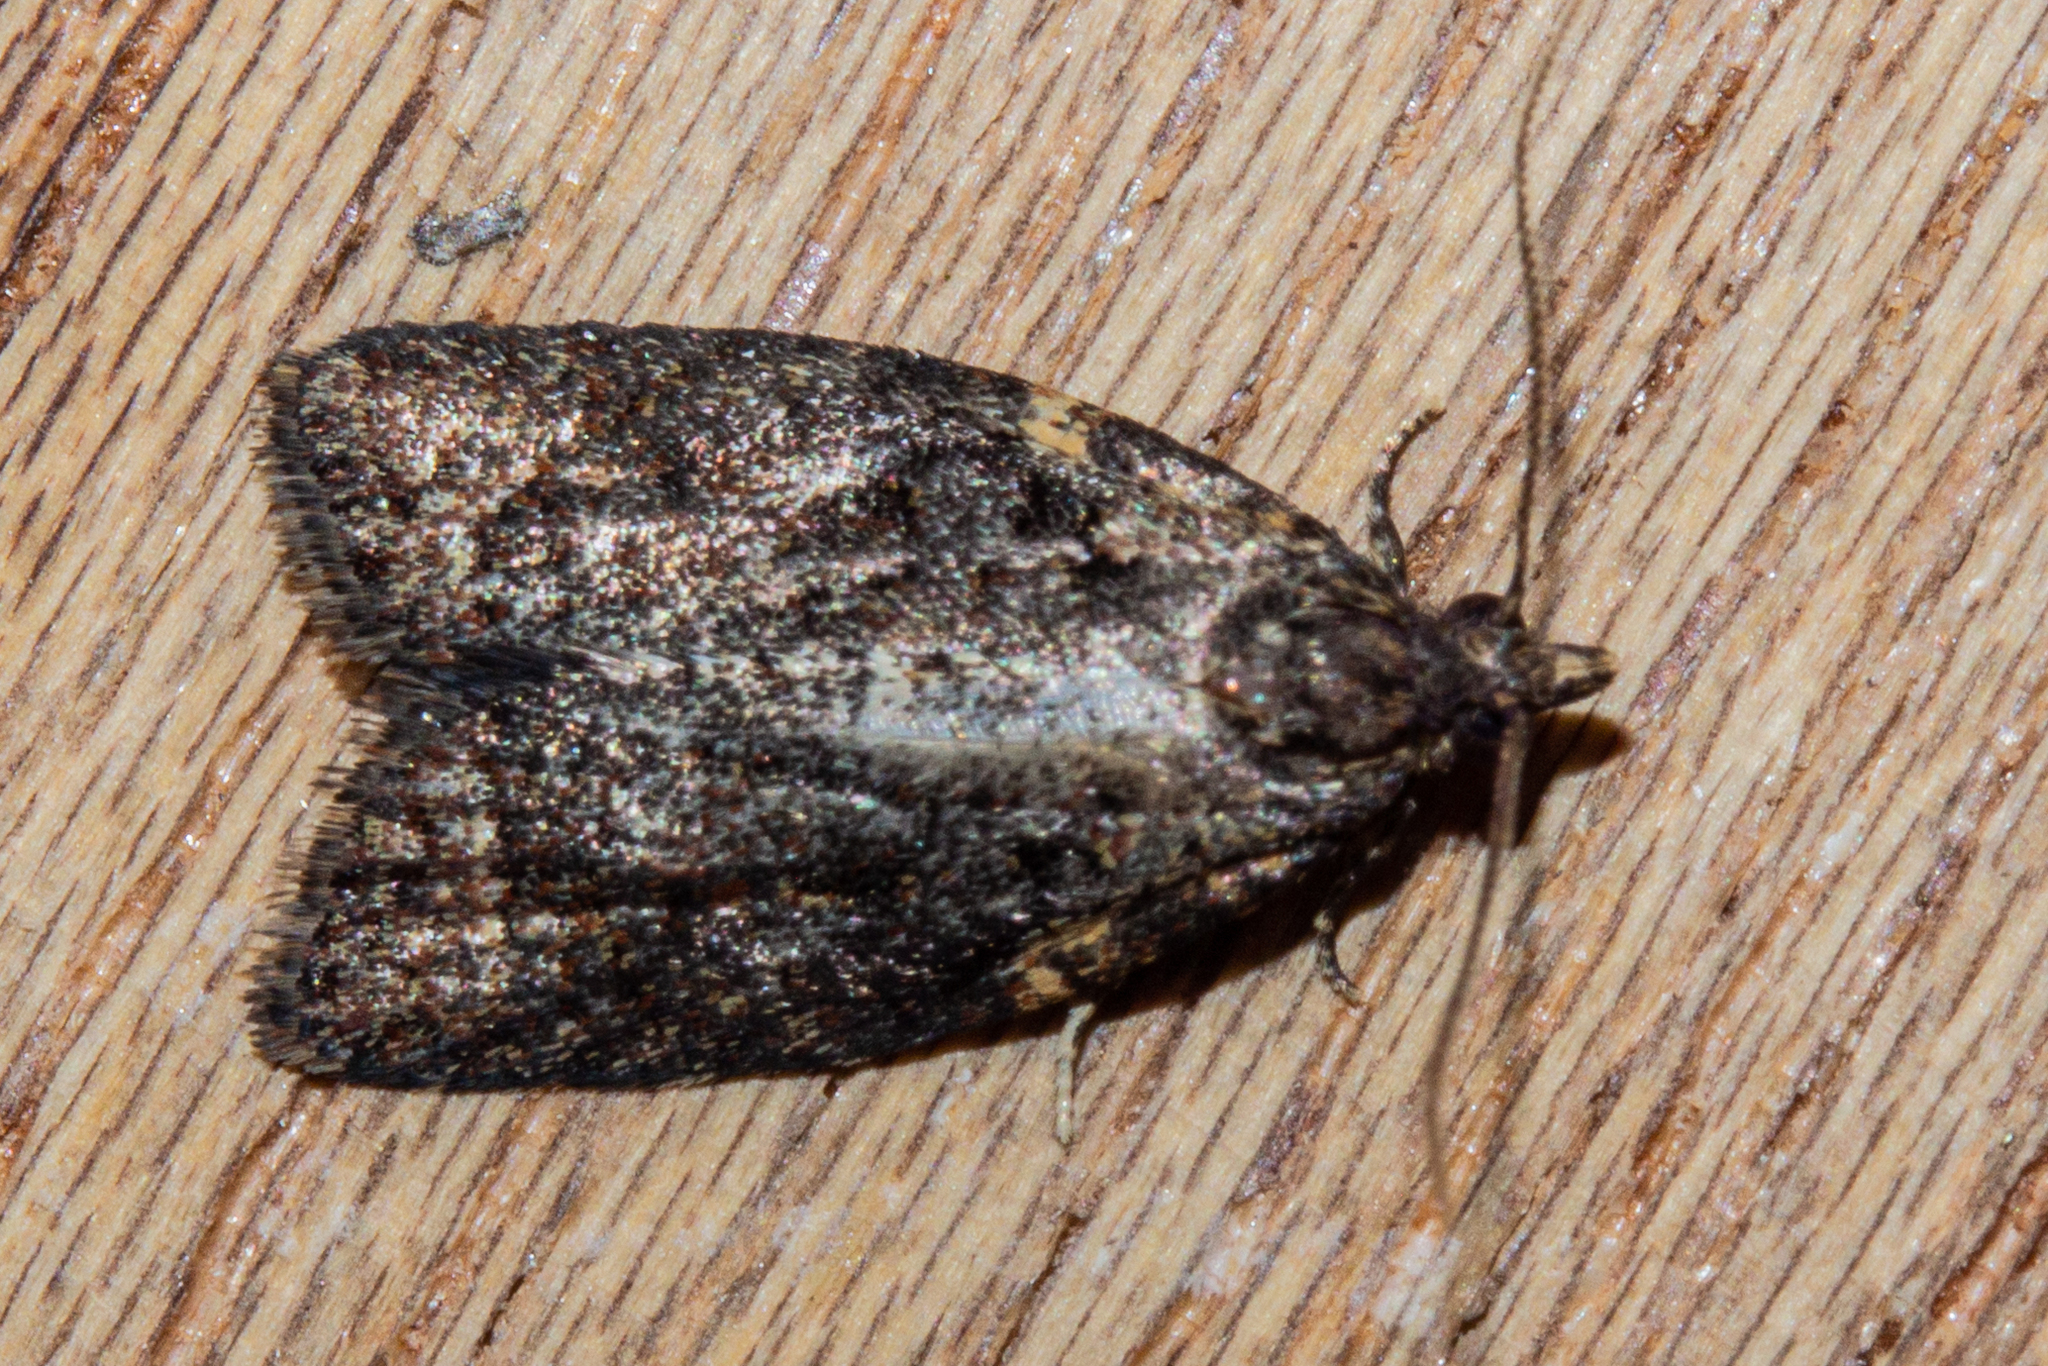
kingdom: Animalia
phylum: Arthropoda
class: Insecta
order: Lepidoptera
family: Tortricidae
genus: Capua
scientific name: Capua intractana
